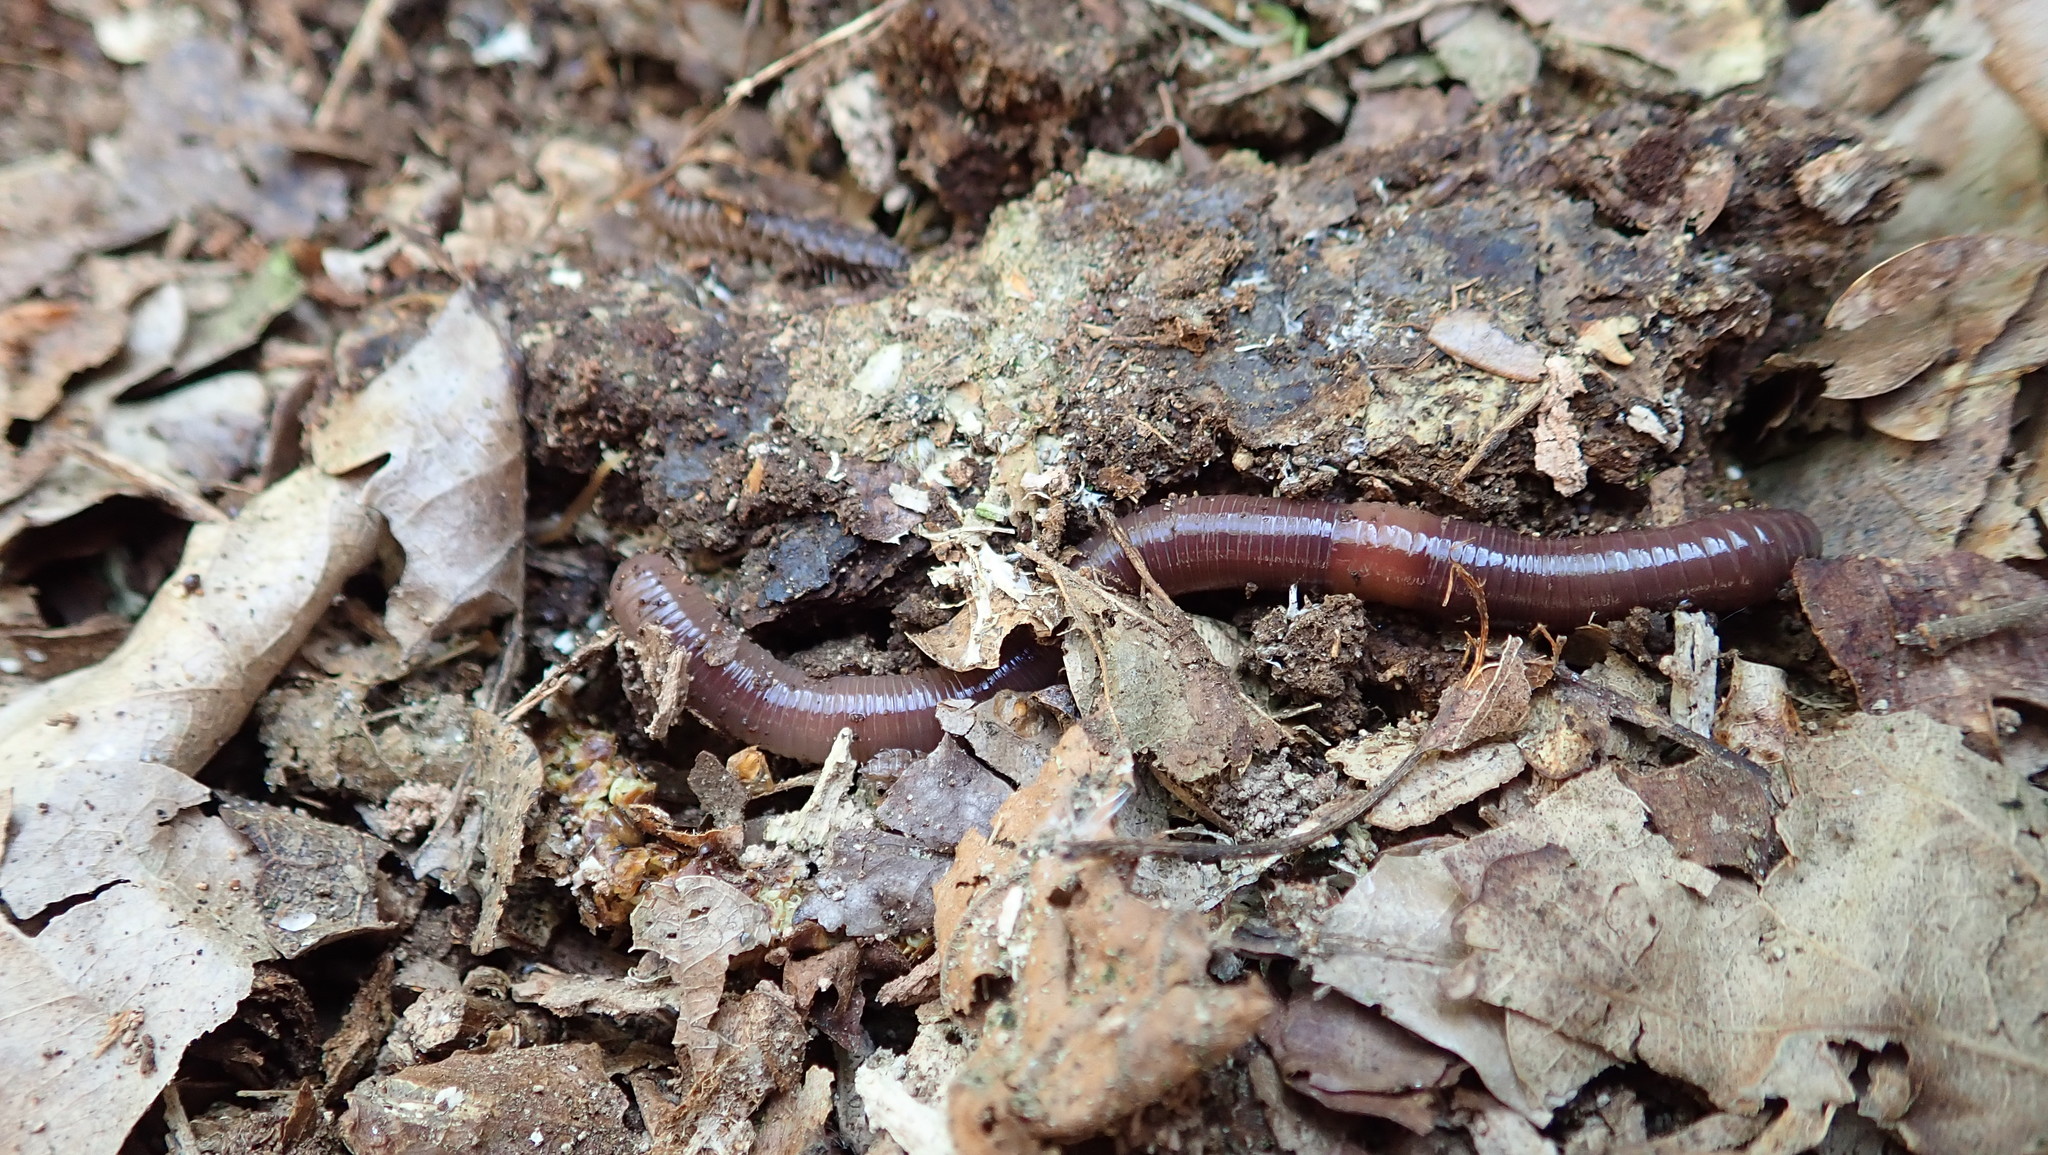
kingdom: Animalia
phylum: Annelida
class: Clitellata
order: Crassiclitellata
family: Lumbricidae
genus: Lumbricus
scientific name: Lumbricus terrestris
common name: Common earthworm
